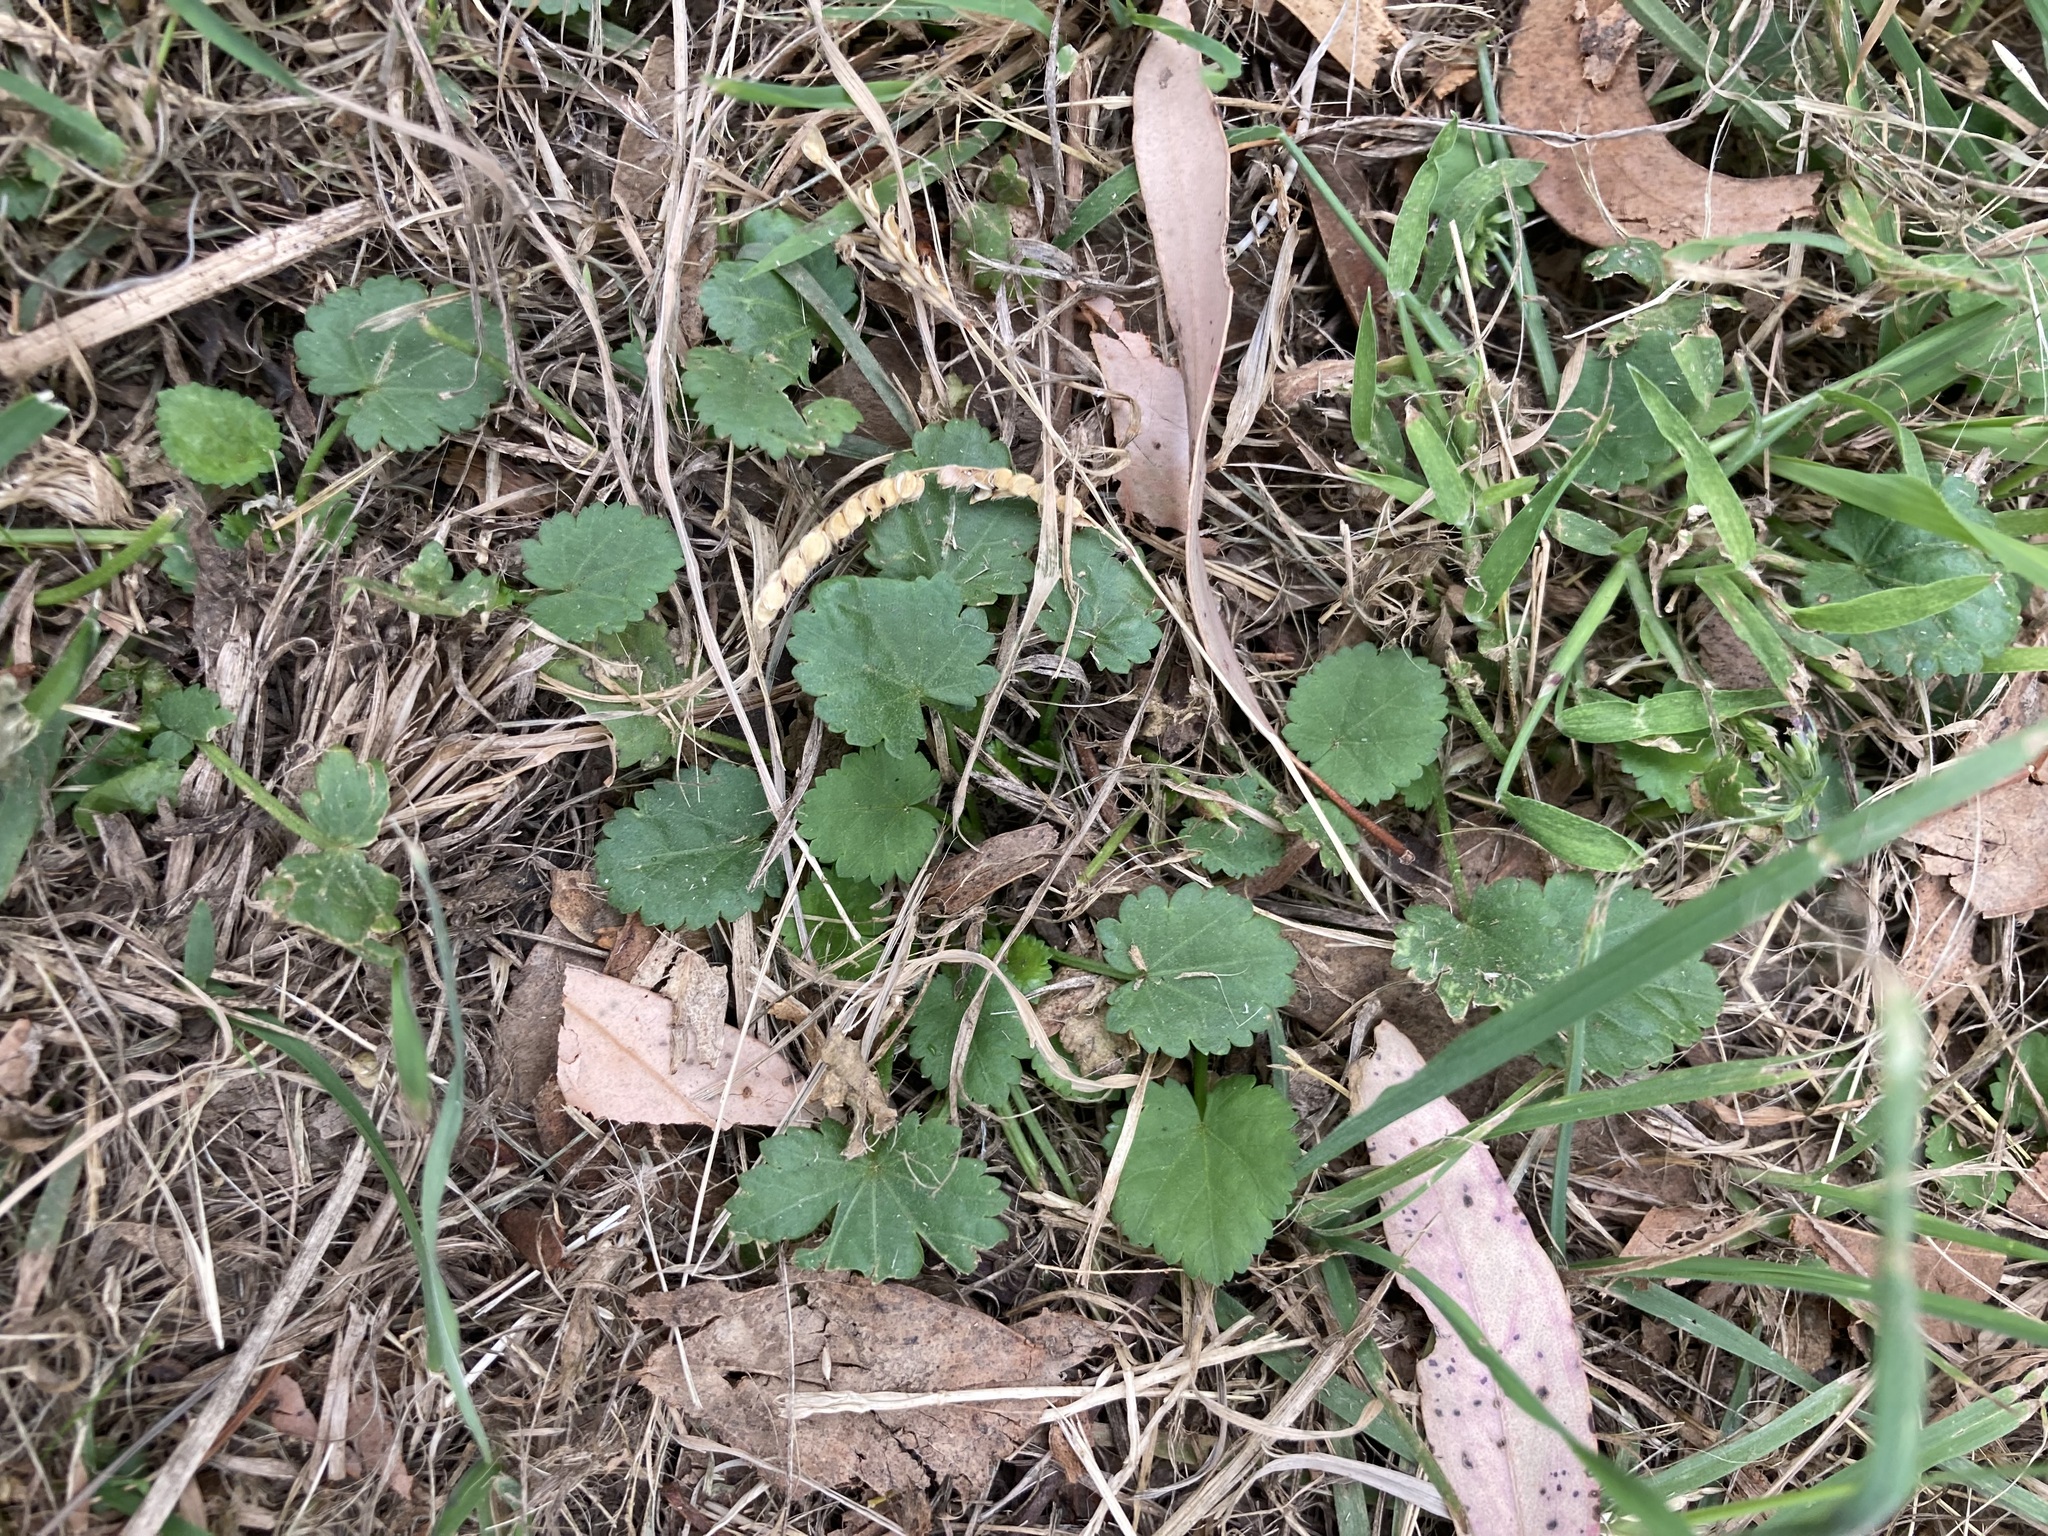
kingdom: Plantae
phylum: Tracheophyta
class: Magnoliopsida
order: Malvales
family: Malvaceae
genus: Modiola
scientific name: Modiola caroliniana
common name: Carolina bristlemallow
